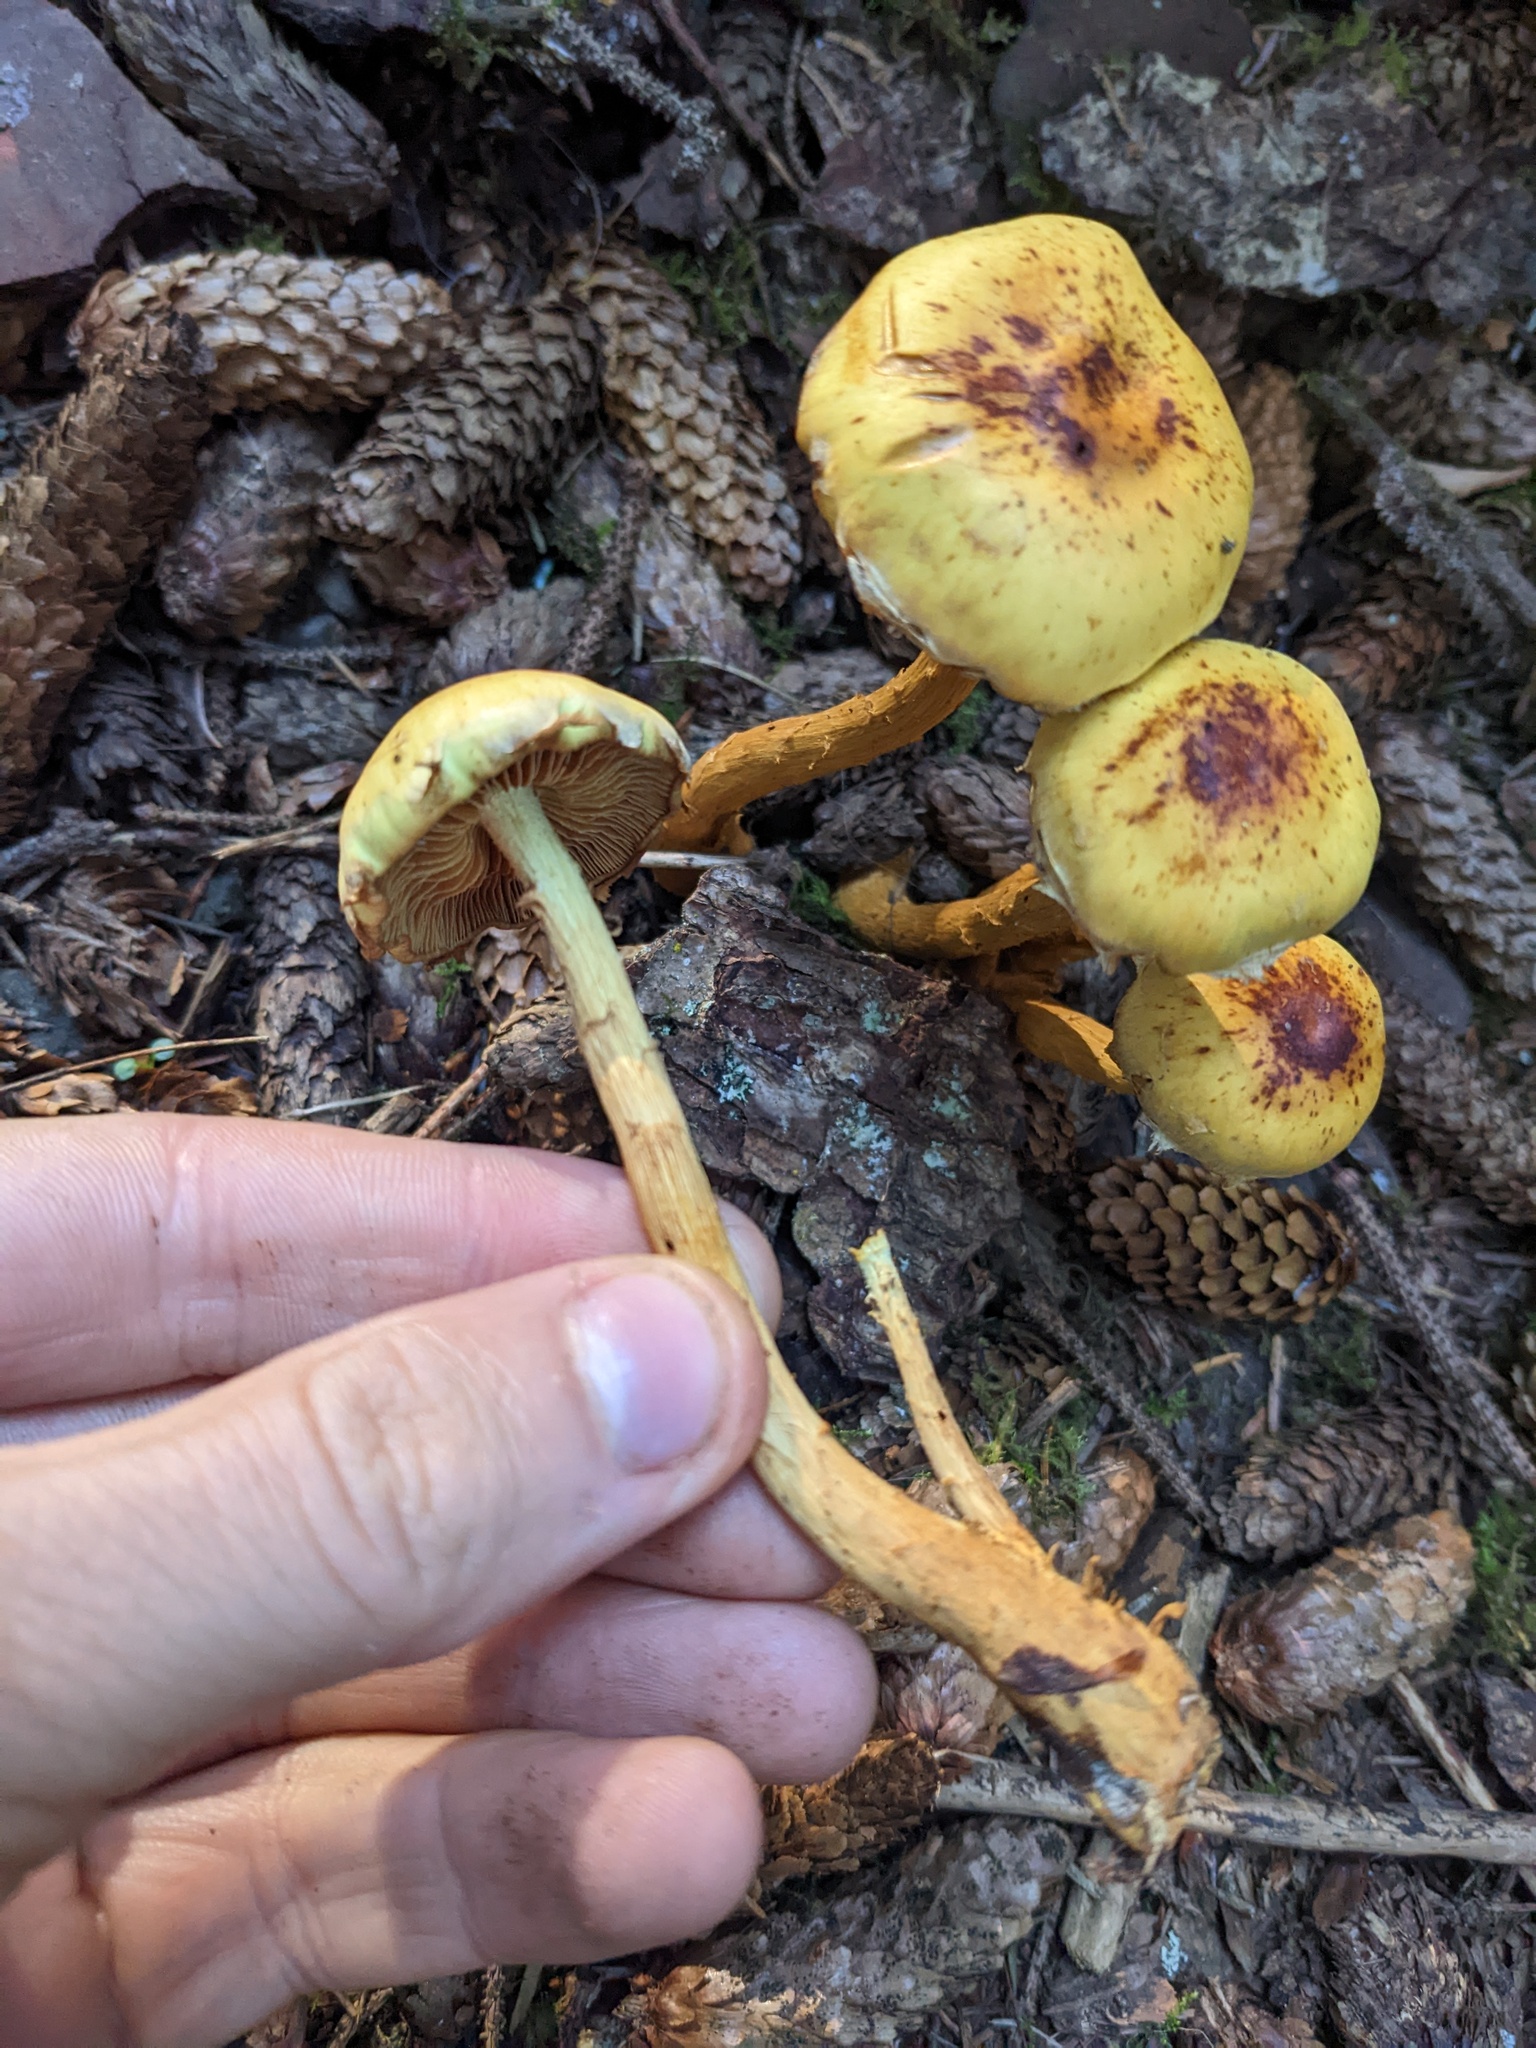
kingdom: Fungi
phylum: Basidiomycota
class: Agaricomycetes
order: Agaricales
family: Hymenogastraceae
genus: Flammula
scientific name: Flammula alnicola
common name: Alder scalycap
